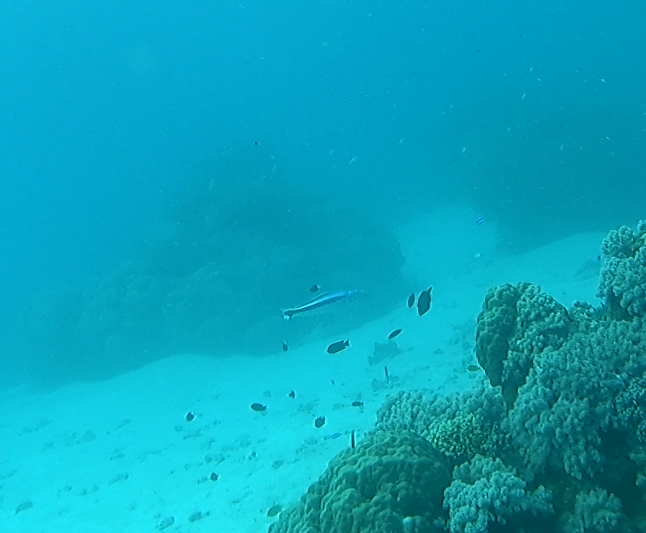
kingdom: Animalia
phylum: Chordata
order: Perciformes
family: Malacanthidae
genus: Malacanthus
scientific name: Malacanthus latovittatus
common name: Blue blanquillo
